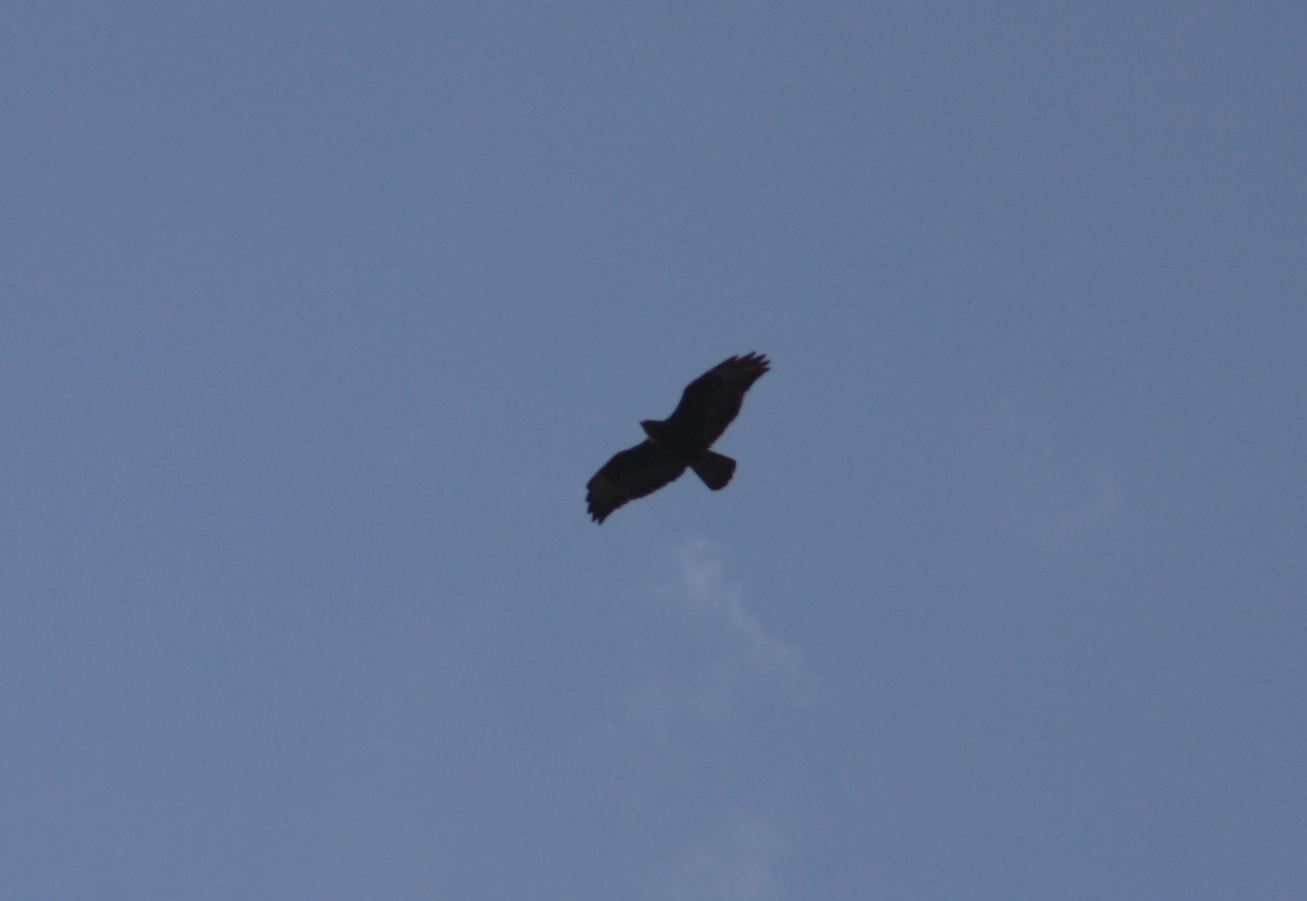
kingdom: Animalia
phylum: Chordata
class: Aves
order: Accipitriformes
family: Accipitridae
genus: Buteo
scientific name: Buteo buteo
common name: Common buzzard
